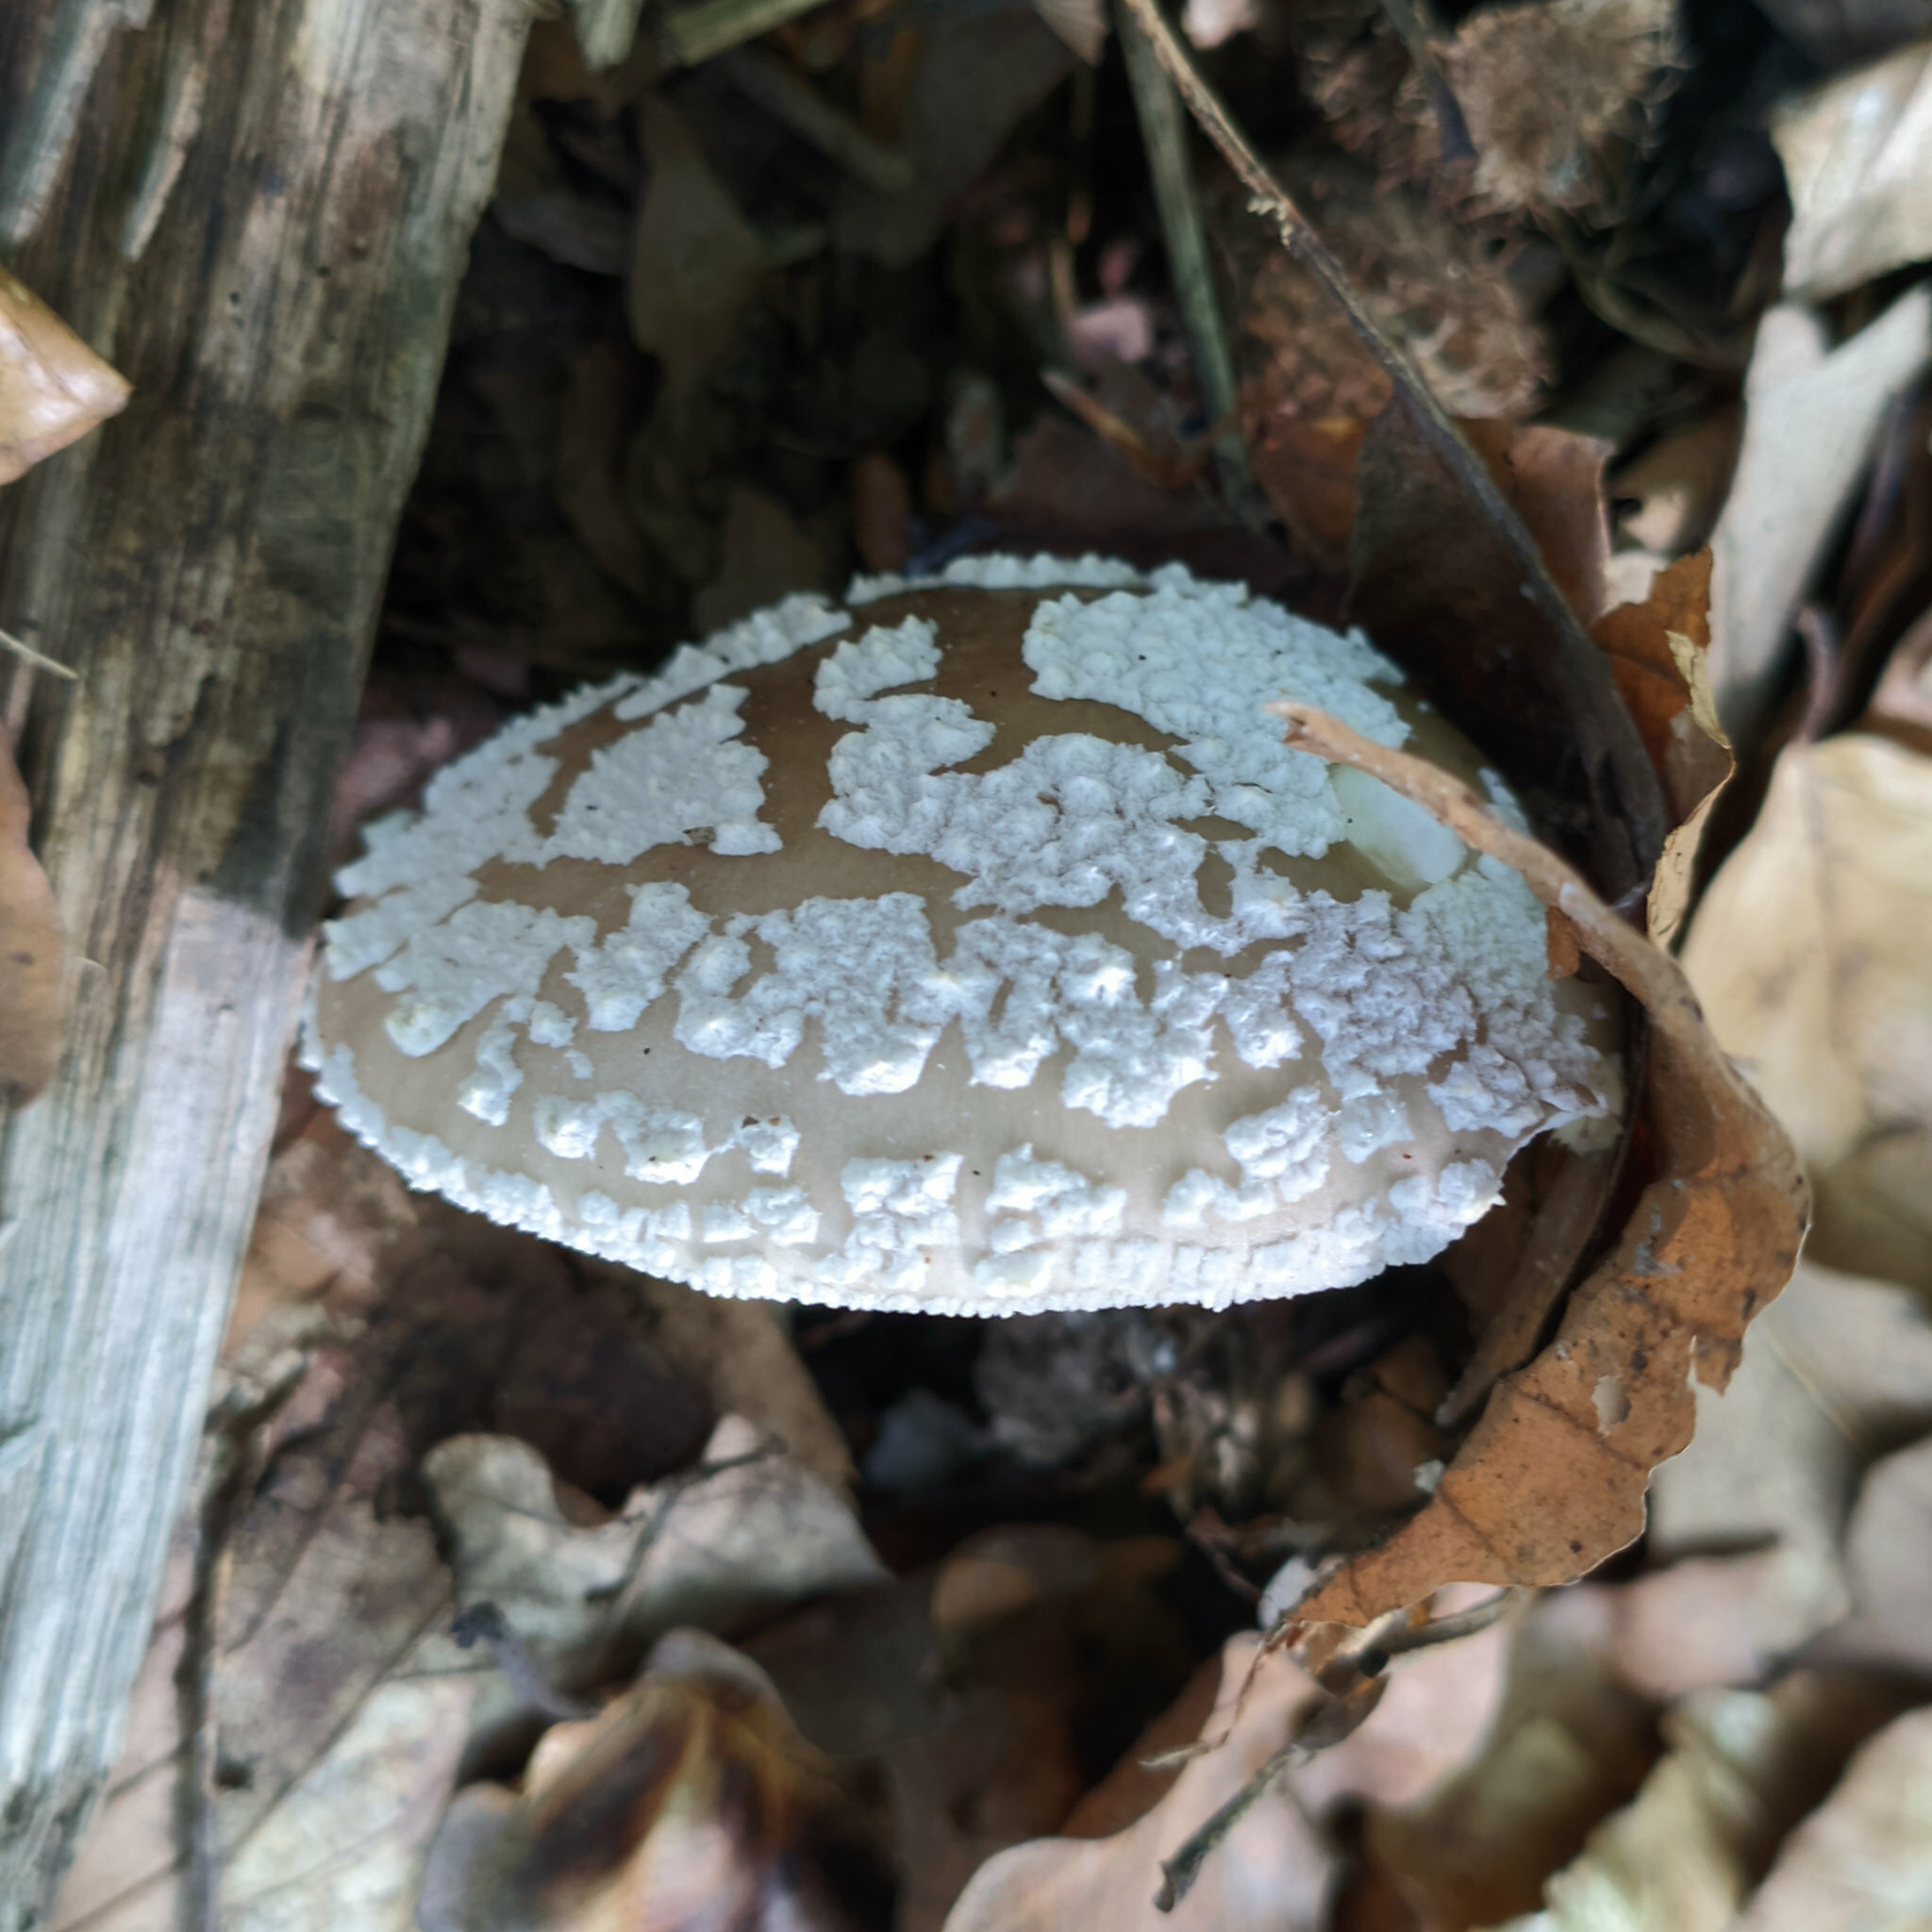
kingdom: Fungi
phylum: Basidiomycota
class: Agaricomycetes
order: Agaricales
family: Amanitaceae
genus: Amanita
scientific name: Amanita excelsa
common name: European false blusher
